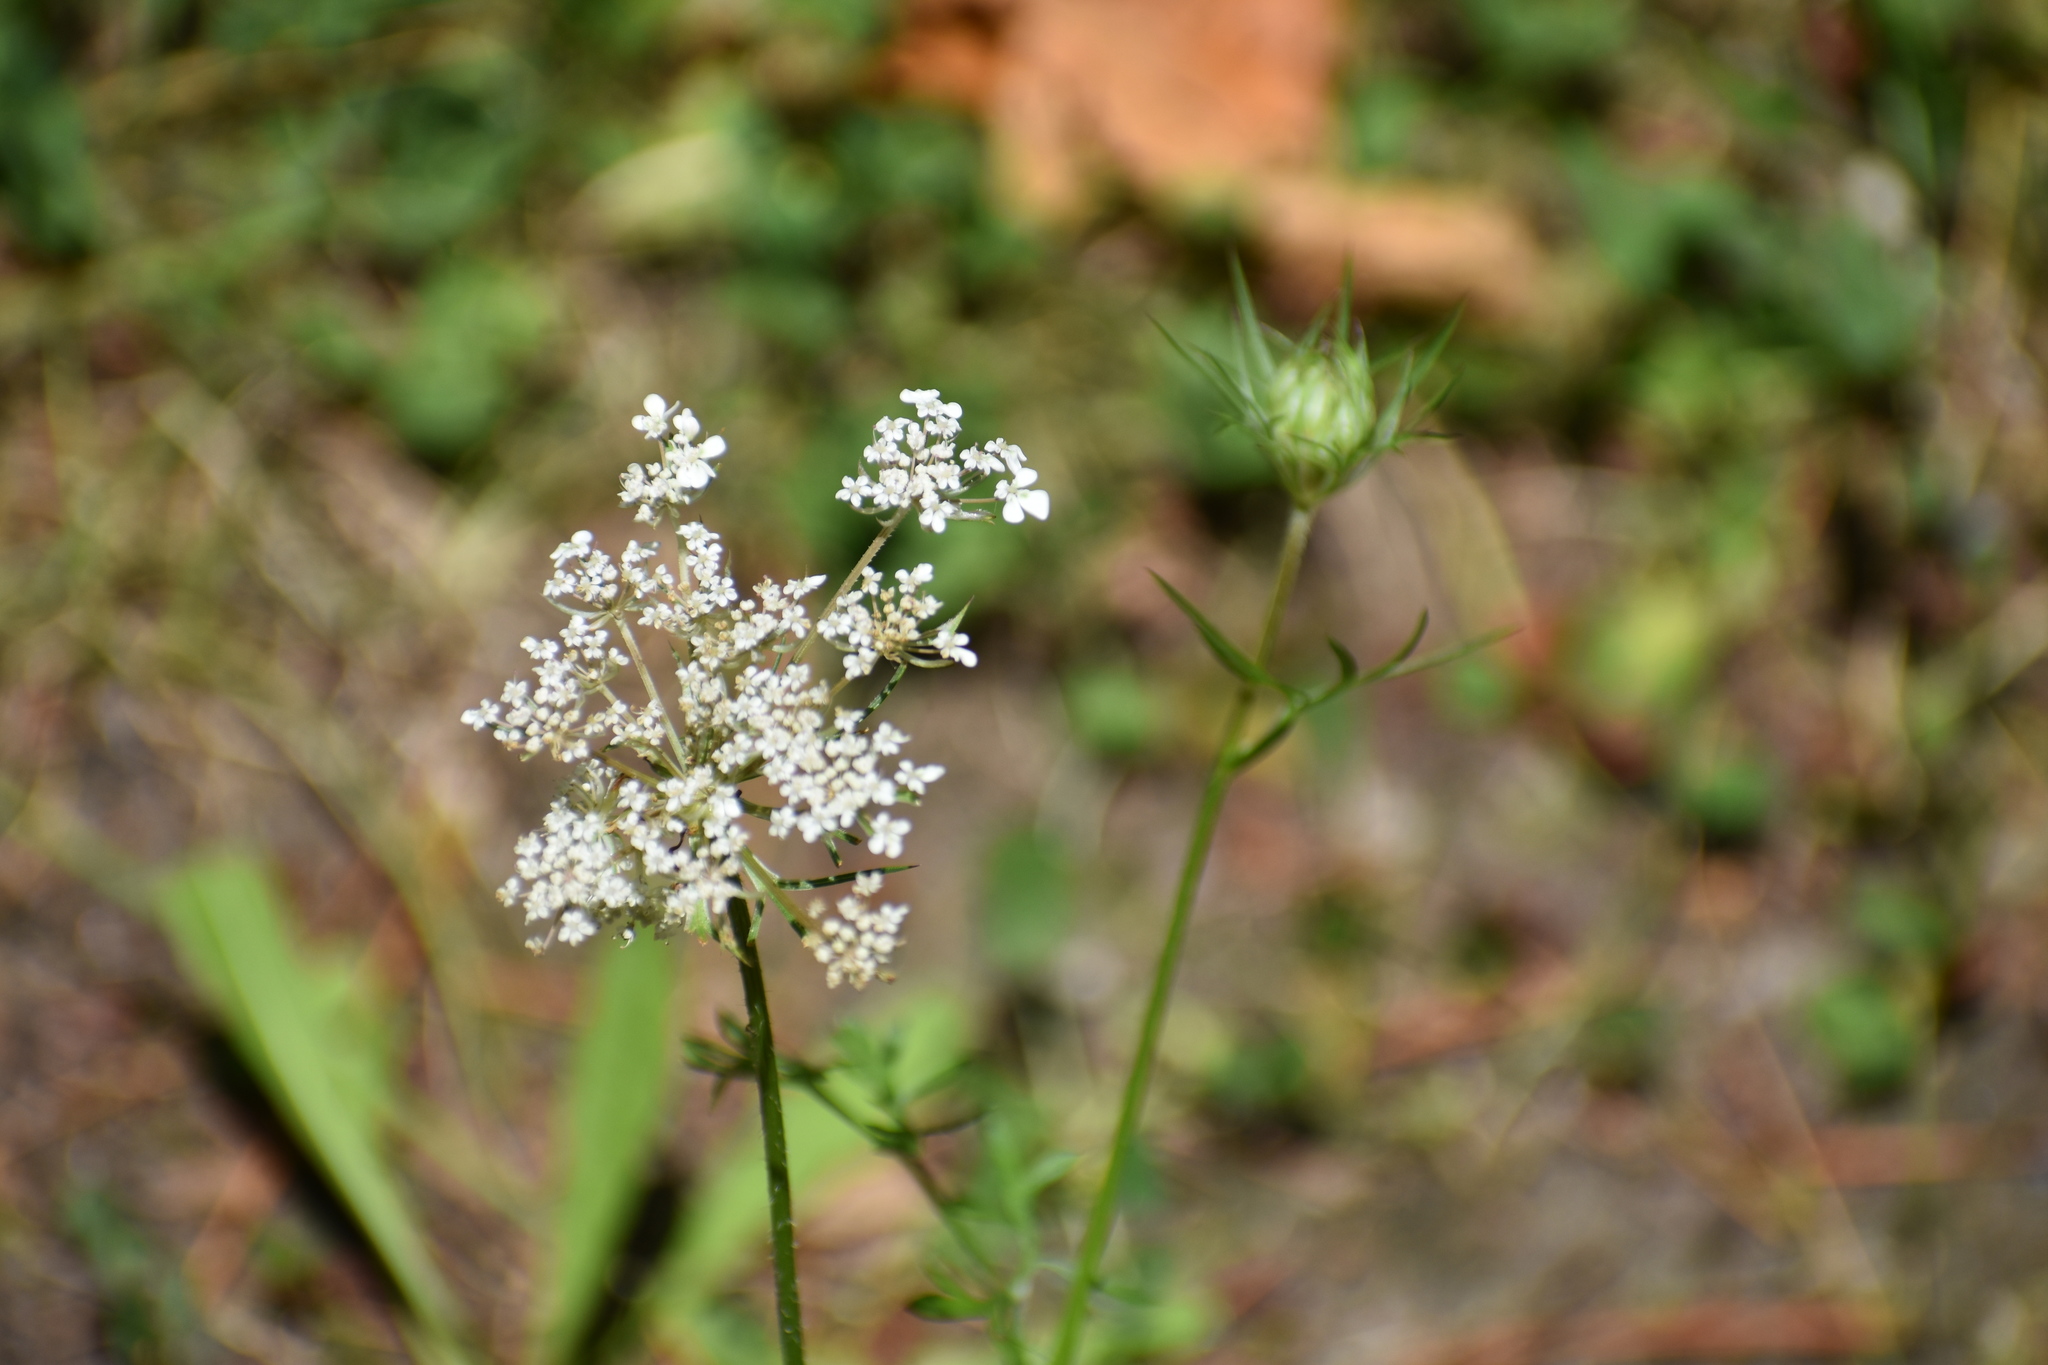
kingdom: Plantae
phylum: Tracheophyta
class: Magnoliopsida
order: Apiales
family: Apiaceae
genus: Daucus
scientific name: Daucus carota
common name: Wild carrot
